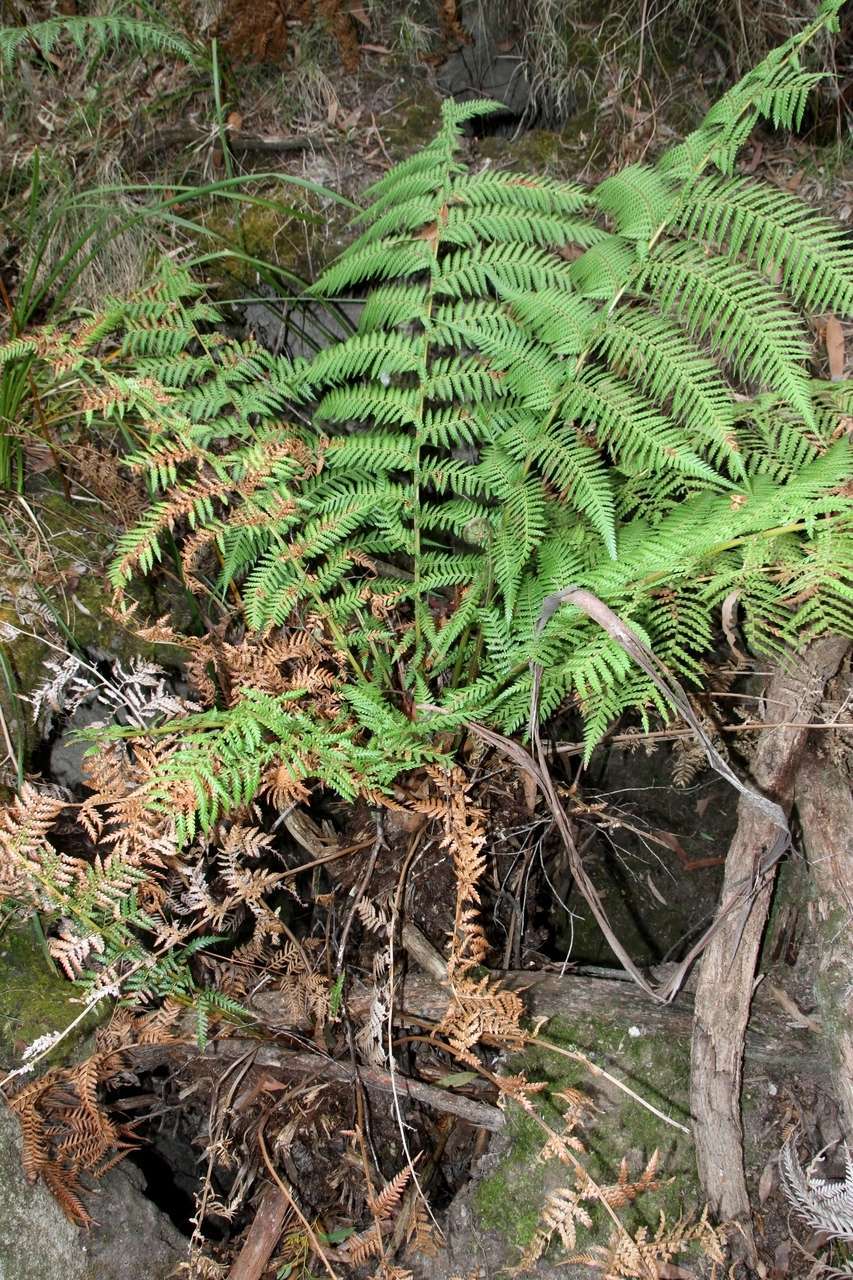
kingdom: Plantae
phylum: Tracheophyta
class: Polypodiopsida
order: Cyatheales
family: Dicksoniaceae
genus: Dicksonia
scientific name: Dicksonia antarctica
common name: Australian treefern
